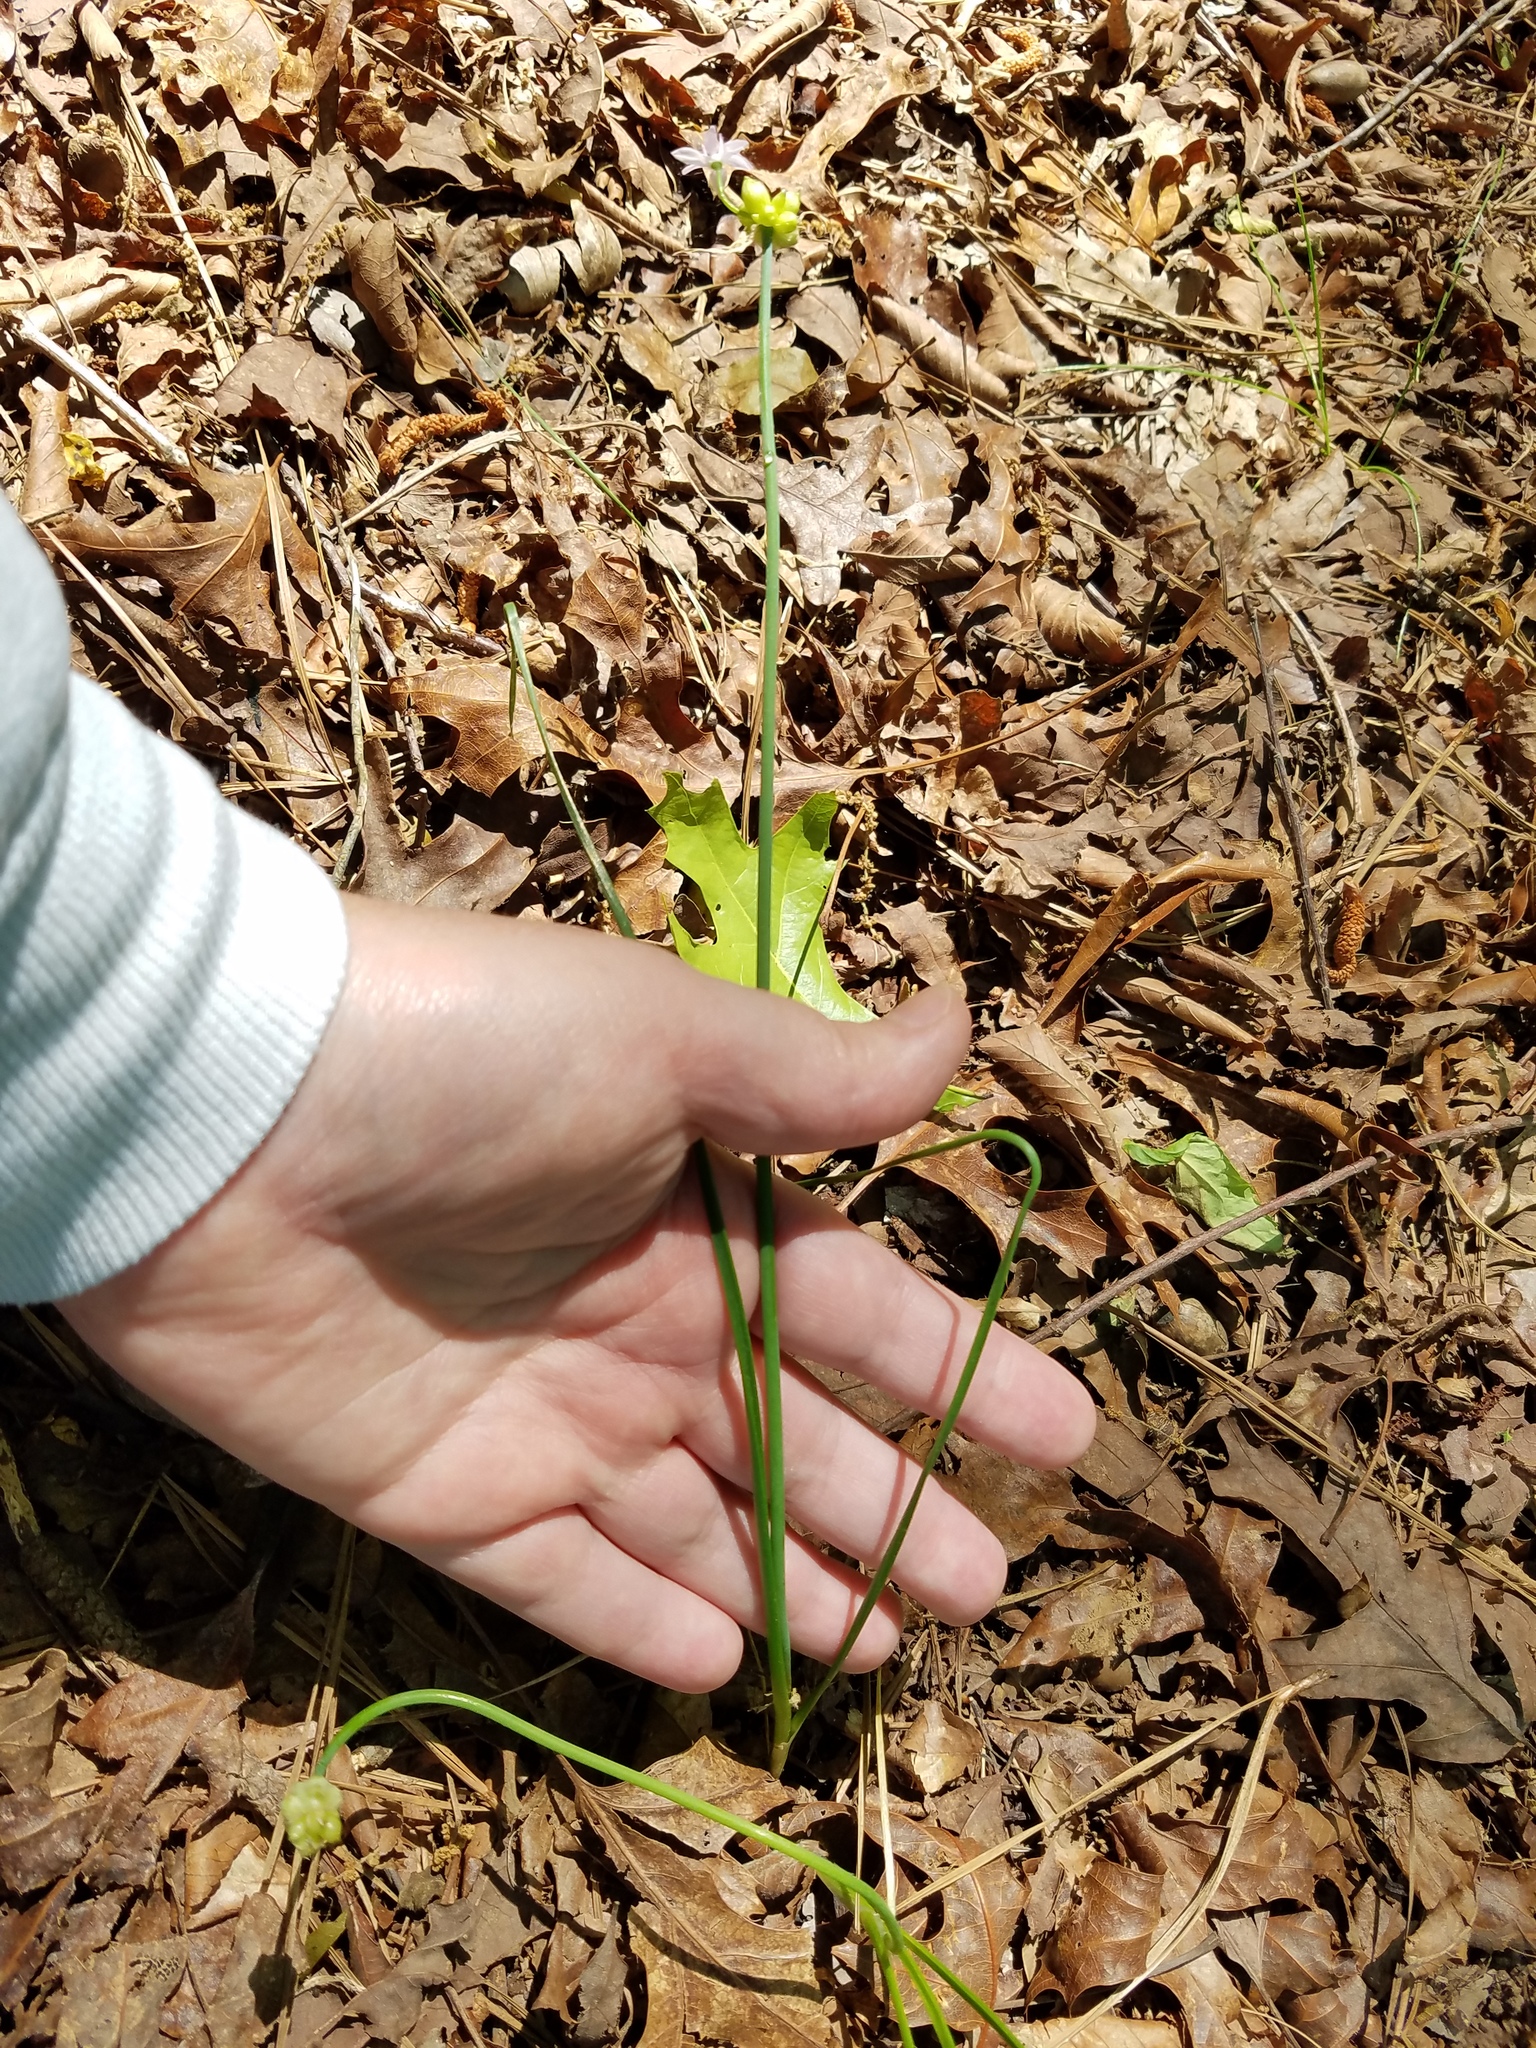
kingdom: Plantae
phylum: Tracheophyta
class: Liliopsida
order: Asparagales
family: Amaryllidaceae
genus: Allium
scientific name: Allium canadense
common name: Meadow garlic
